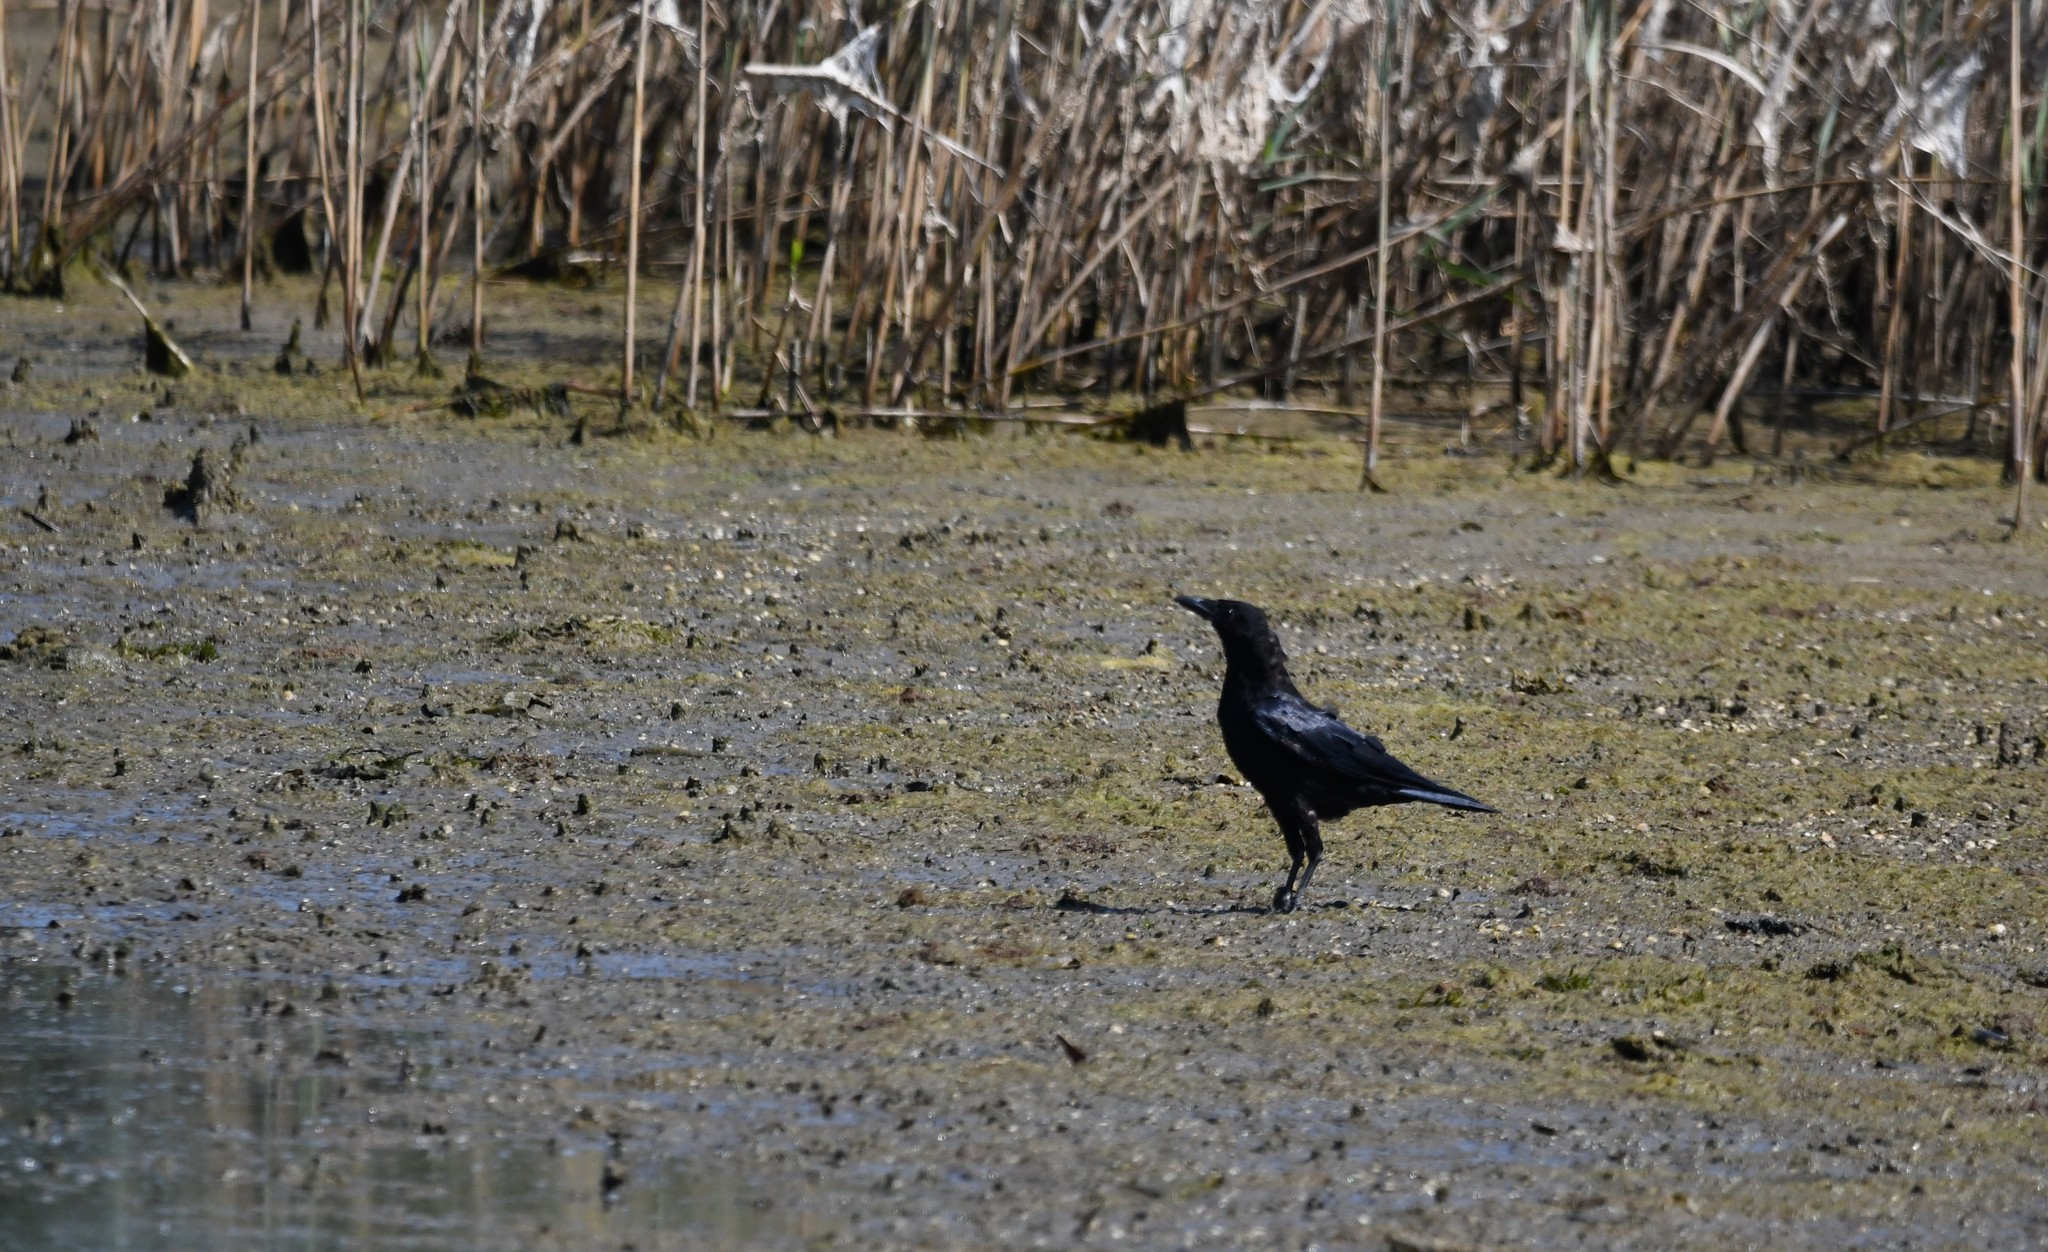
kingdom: Animalia
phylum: Chordata
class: Aves
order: Passeriformes
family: Corvidae
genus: Corvus
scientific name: Corvus corone
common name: Carrion crow
